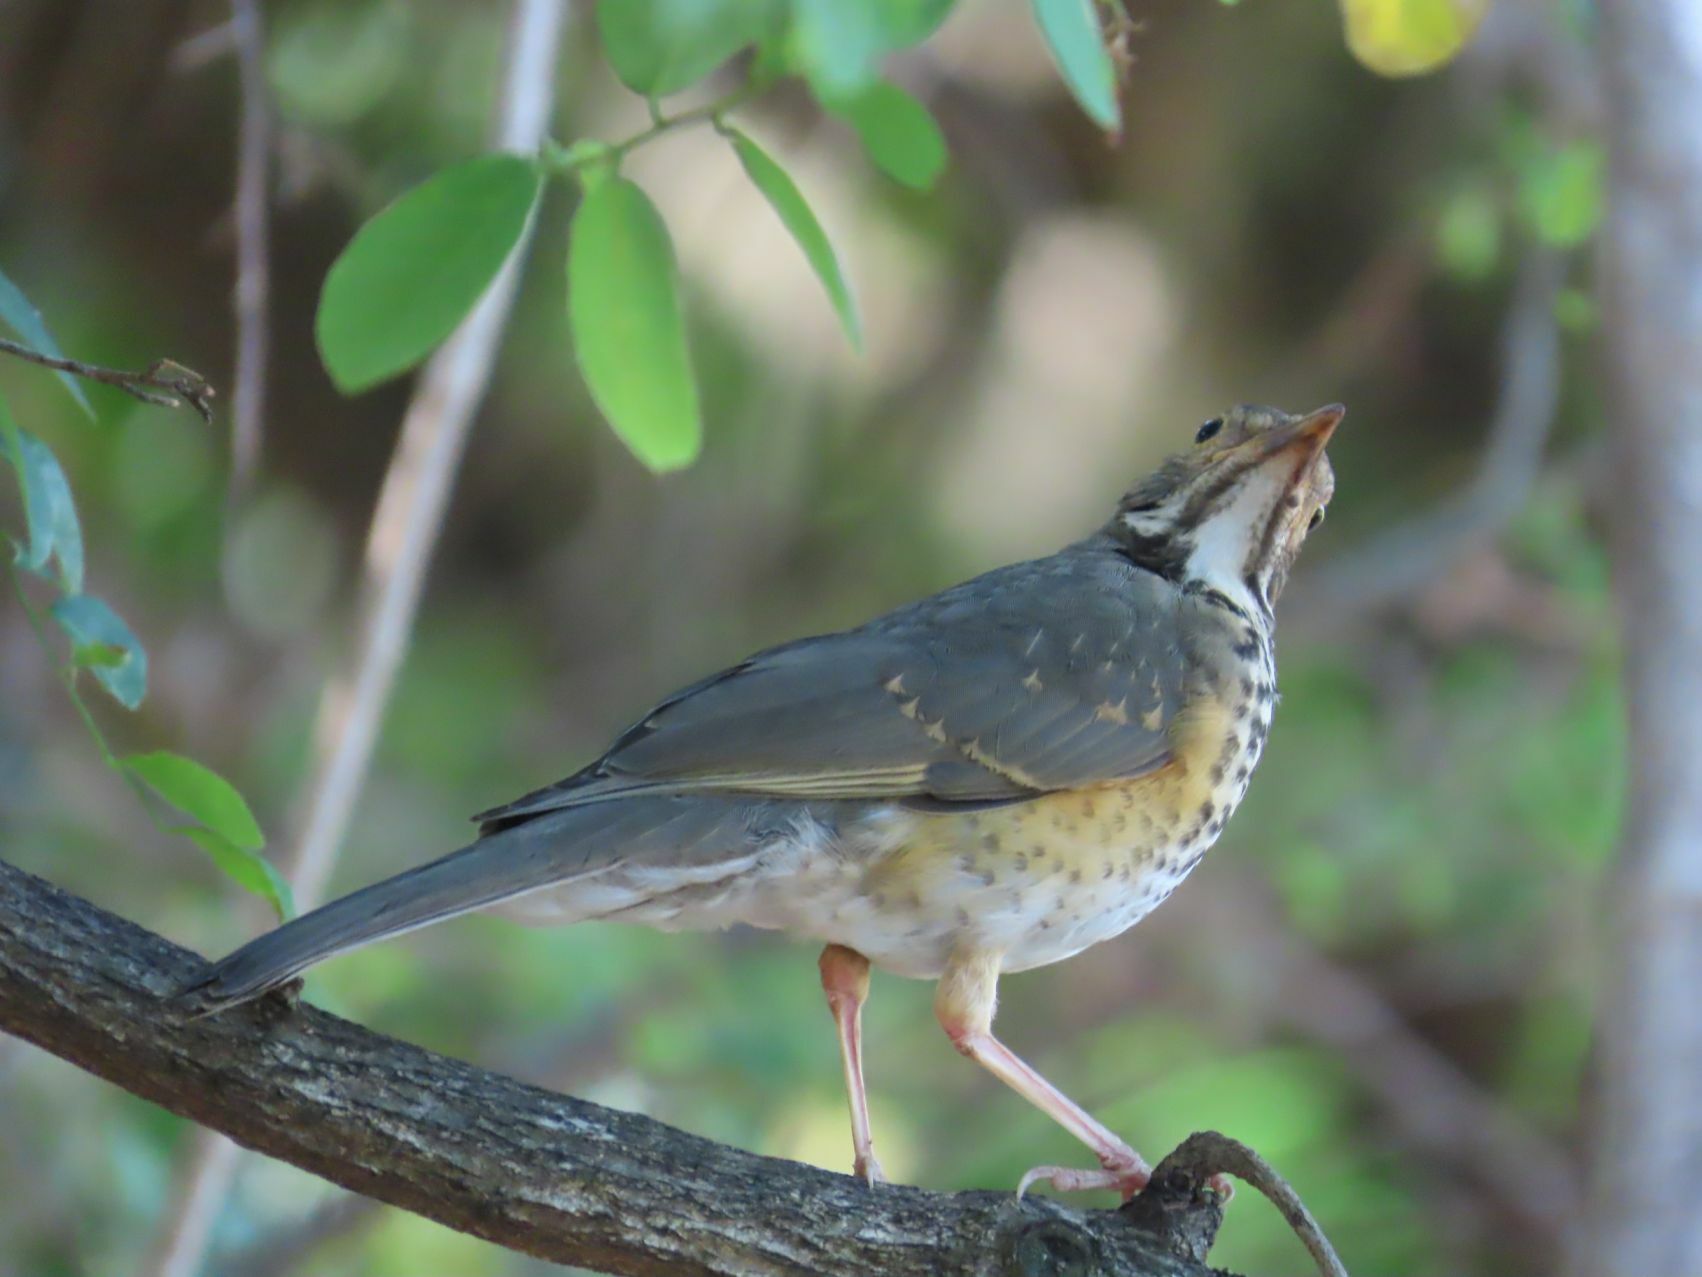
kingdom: Animalia
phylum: Chordata
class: Aves
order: Passeriformes
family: Turdidae
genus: Turdus
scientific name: Turdus libonyana
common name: Kurrichane thrush
